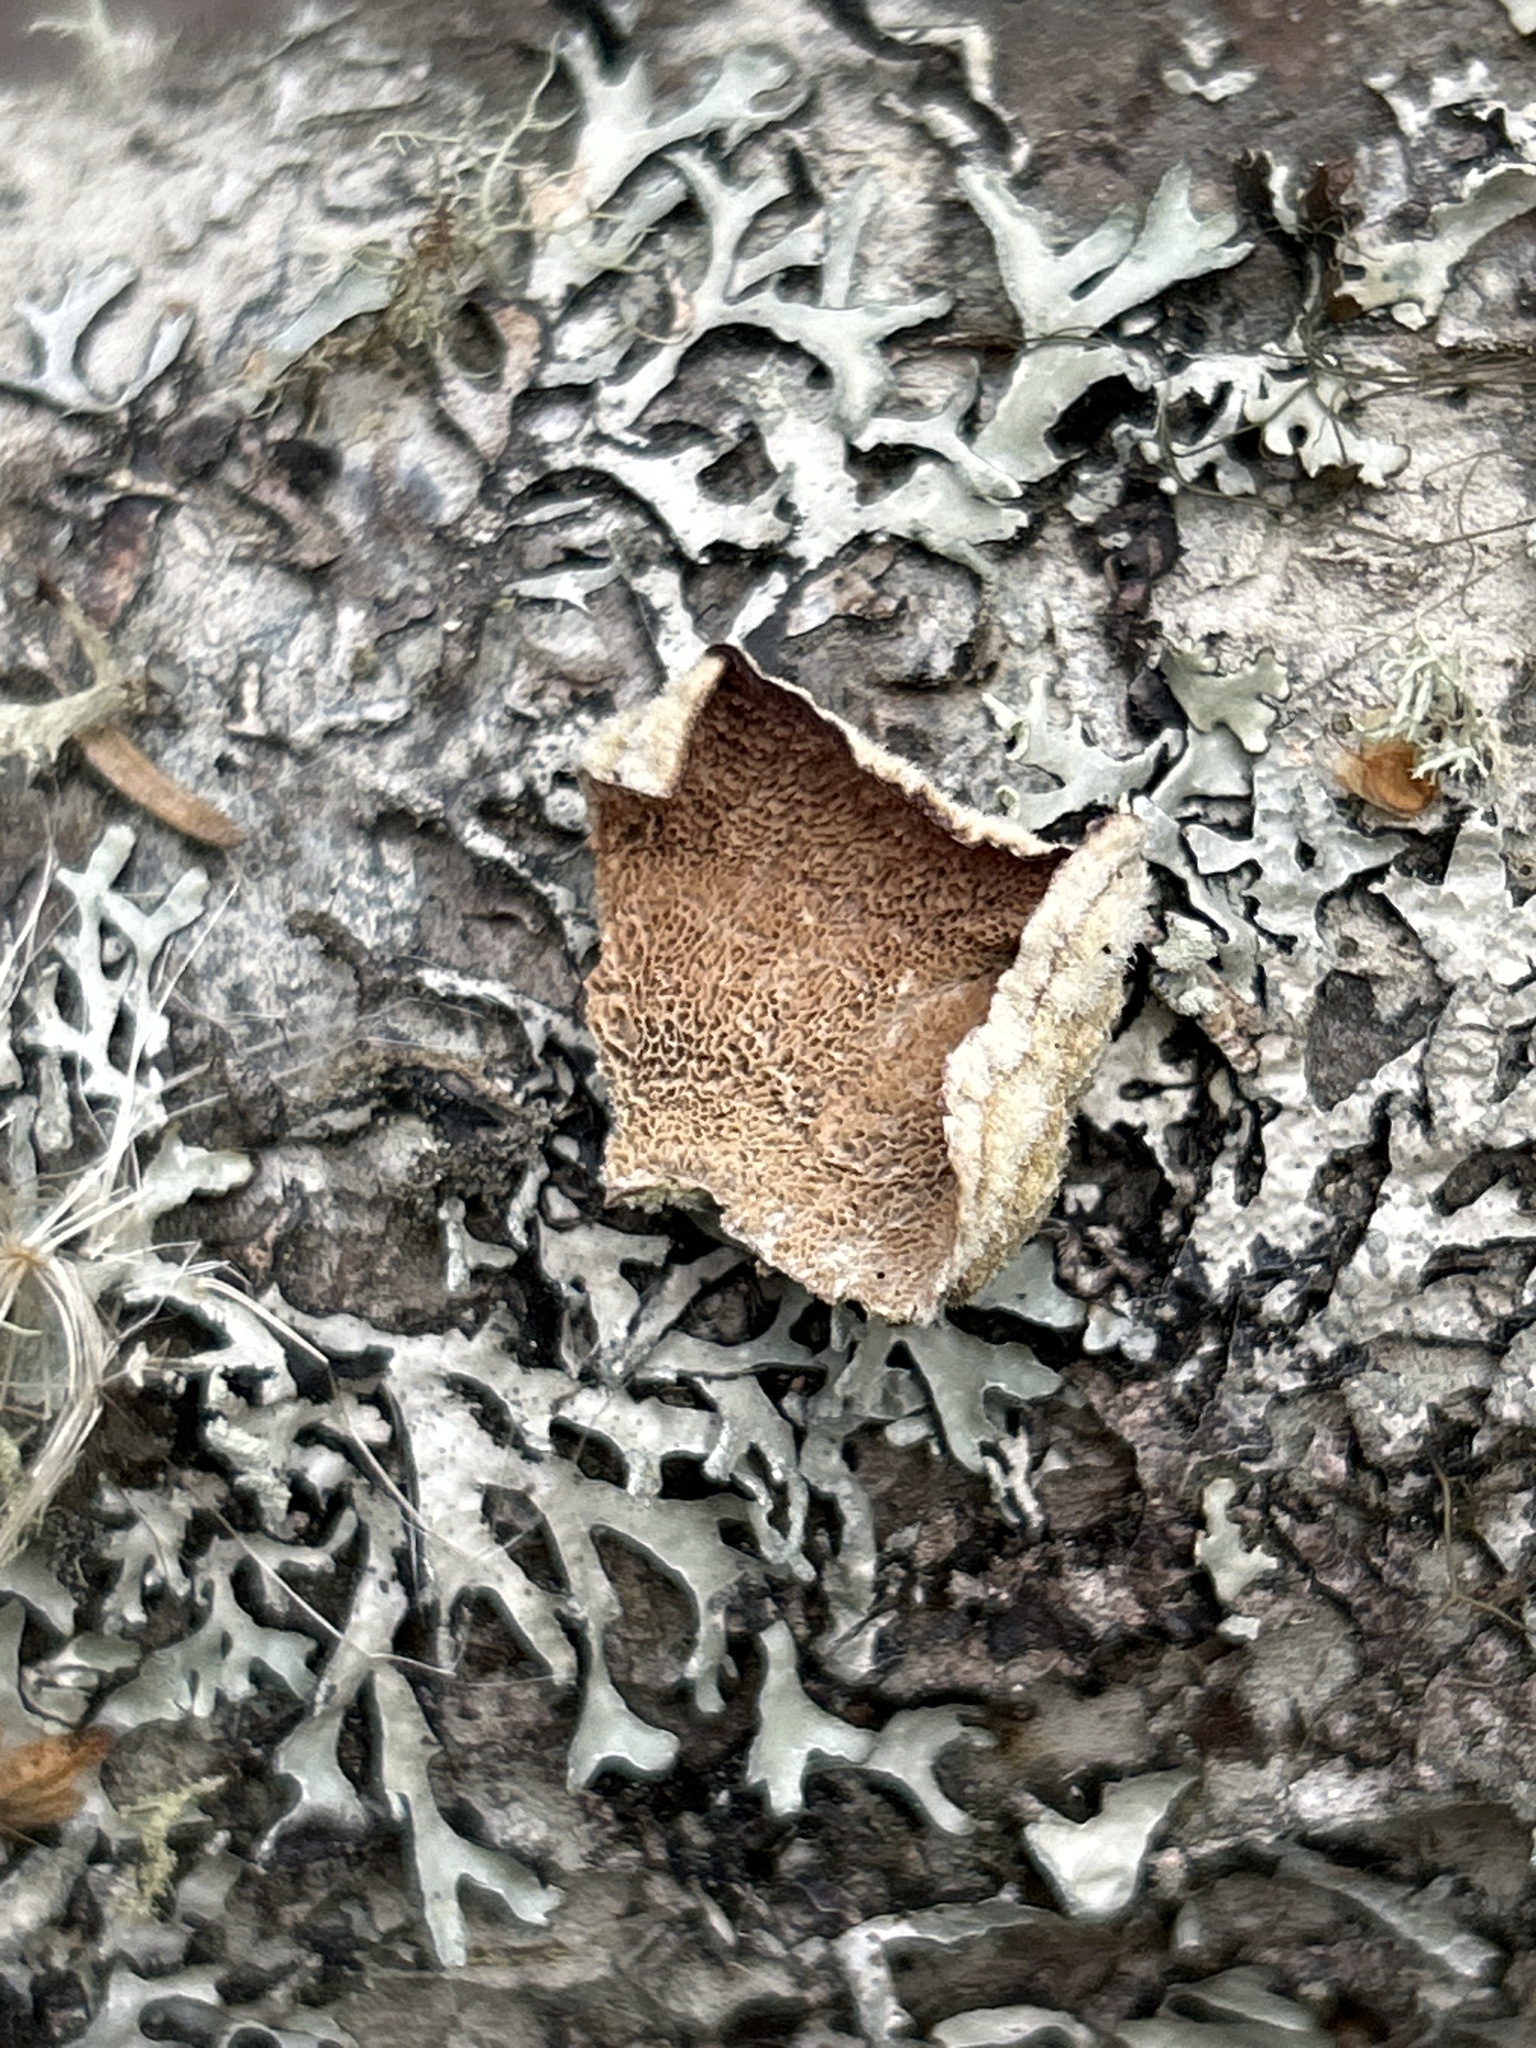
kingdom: Fungi
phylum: Basidiomycota
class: Agaricomycetes
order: Hymenochaetales
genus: Trichaptum
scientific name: Trichaptum abietinum
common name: Purplepore bracket
